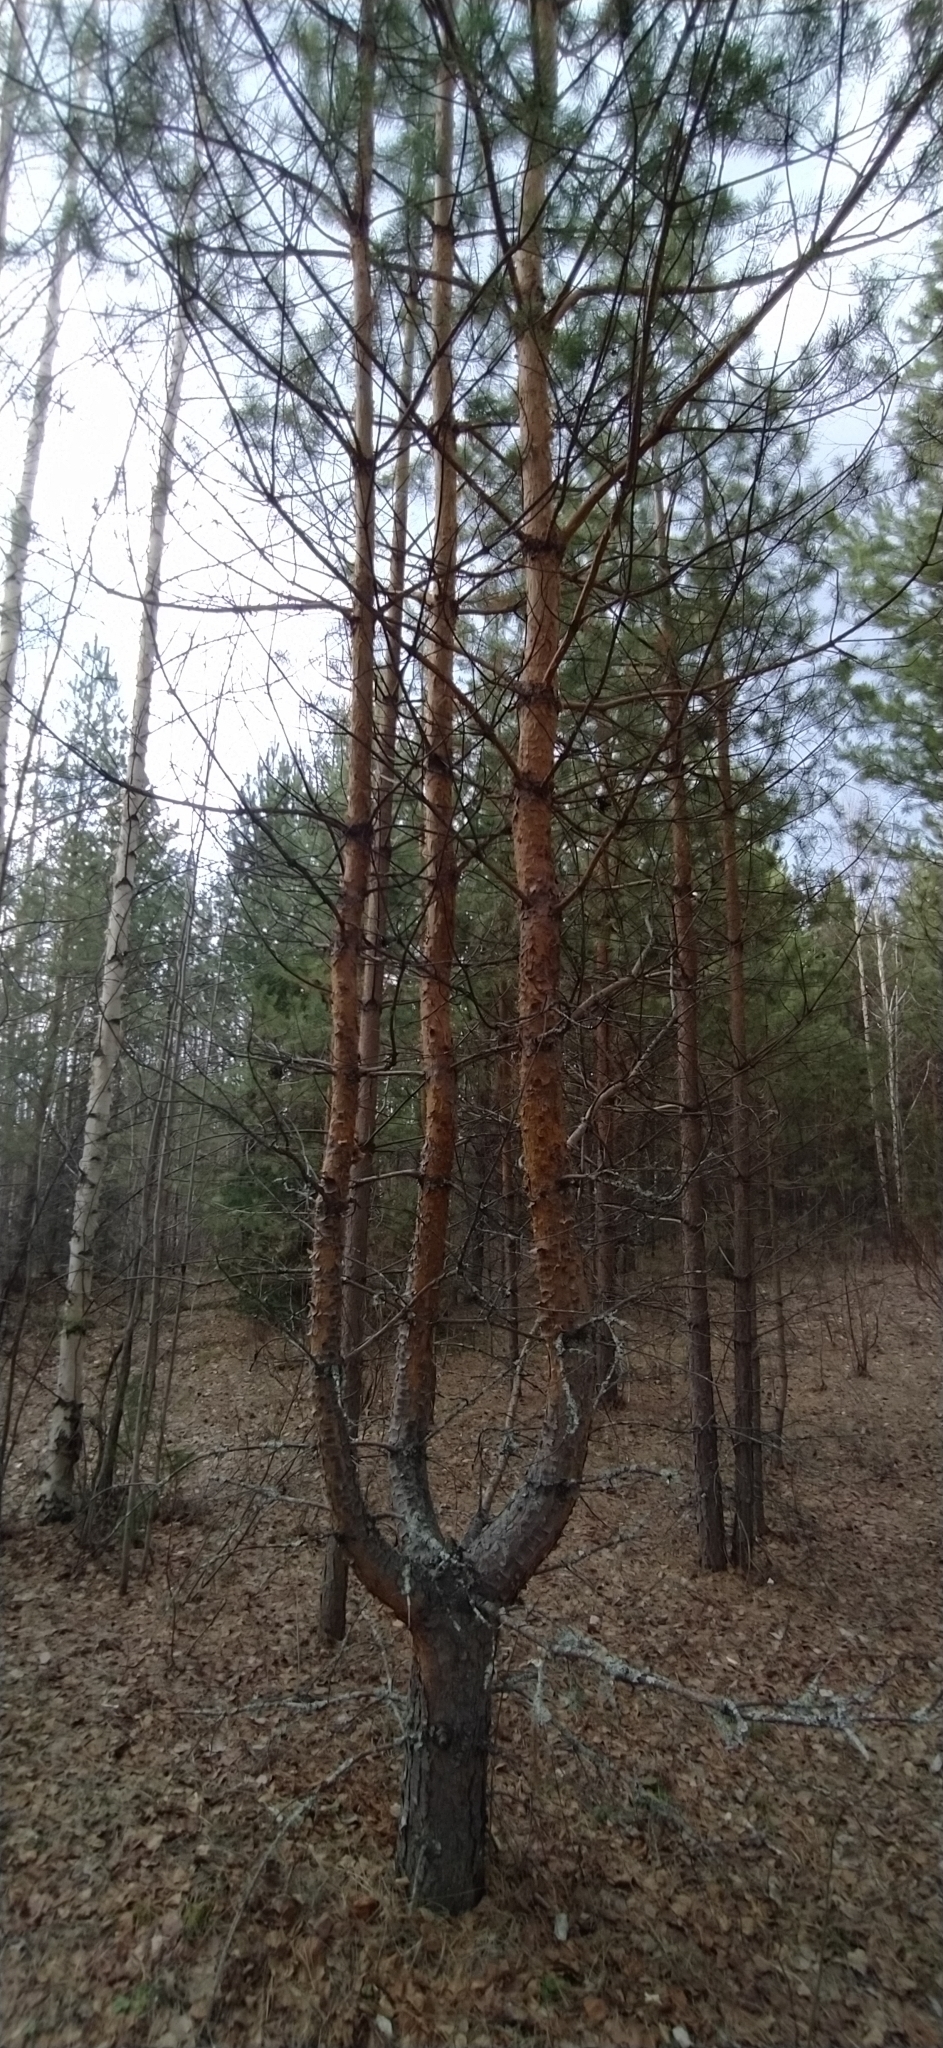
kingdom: Plantae
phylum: Tracheophyta
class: Pinopsida
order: Pinales
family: Pinaceae
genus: Pinus
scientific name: Pinus sylvestris
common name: Scots pine
